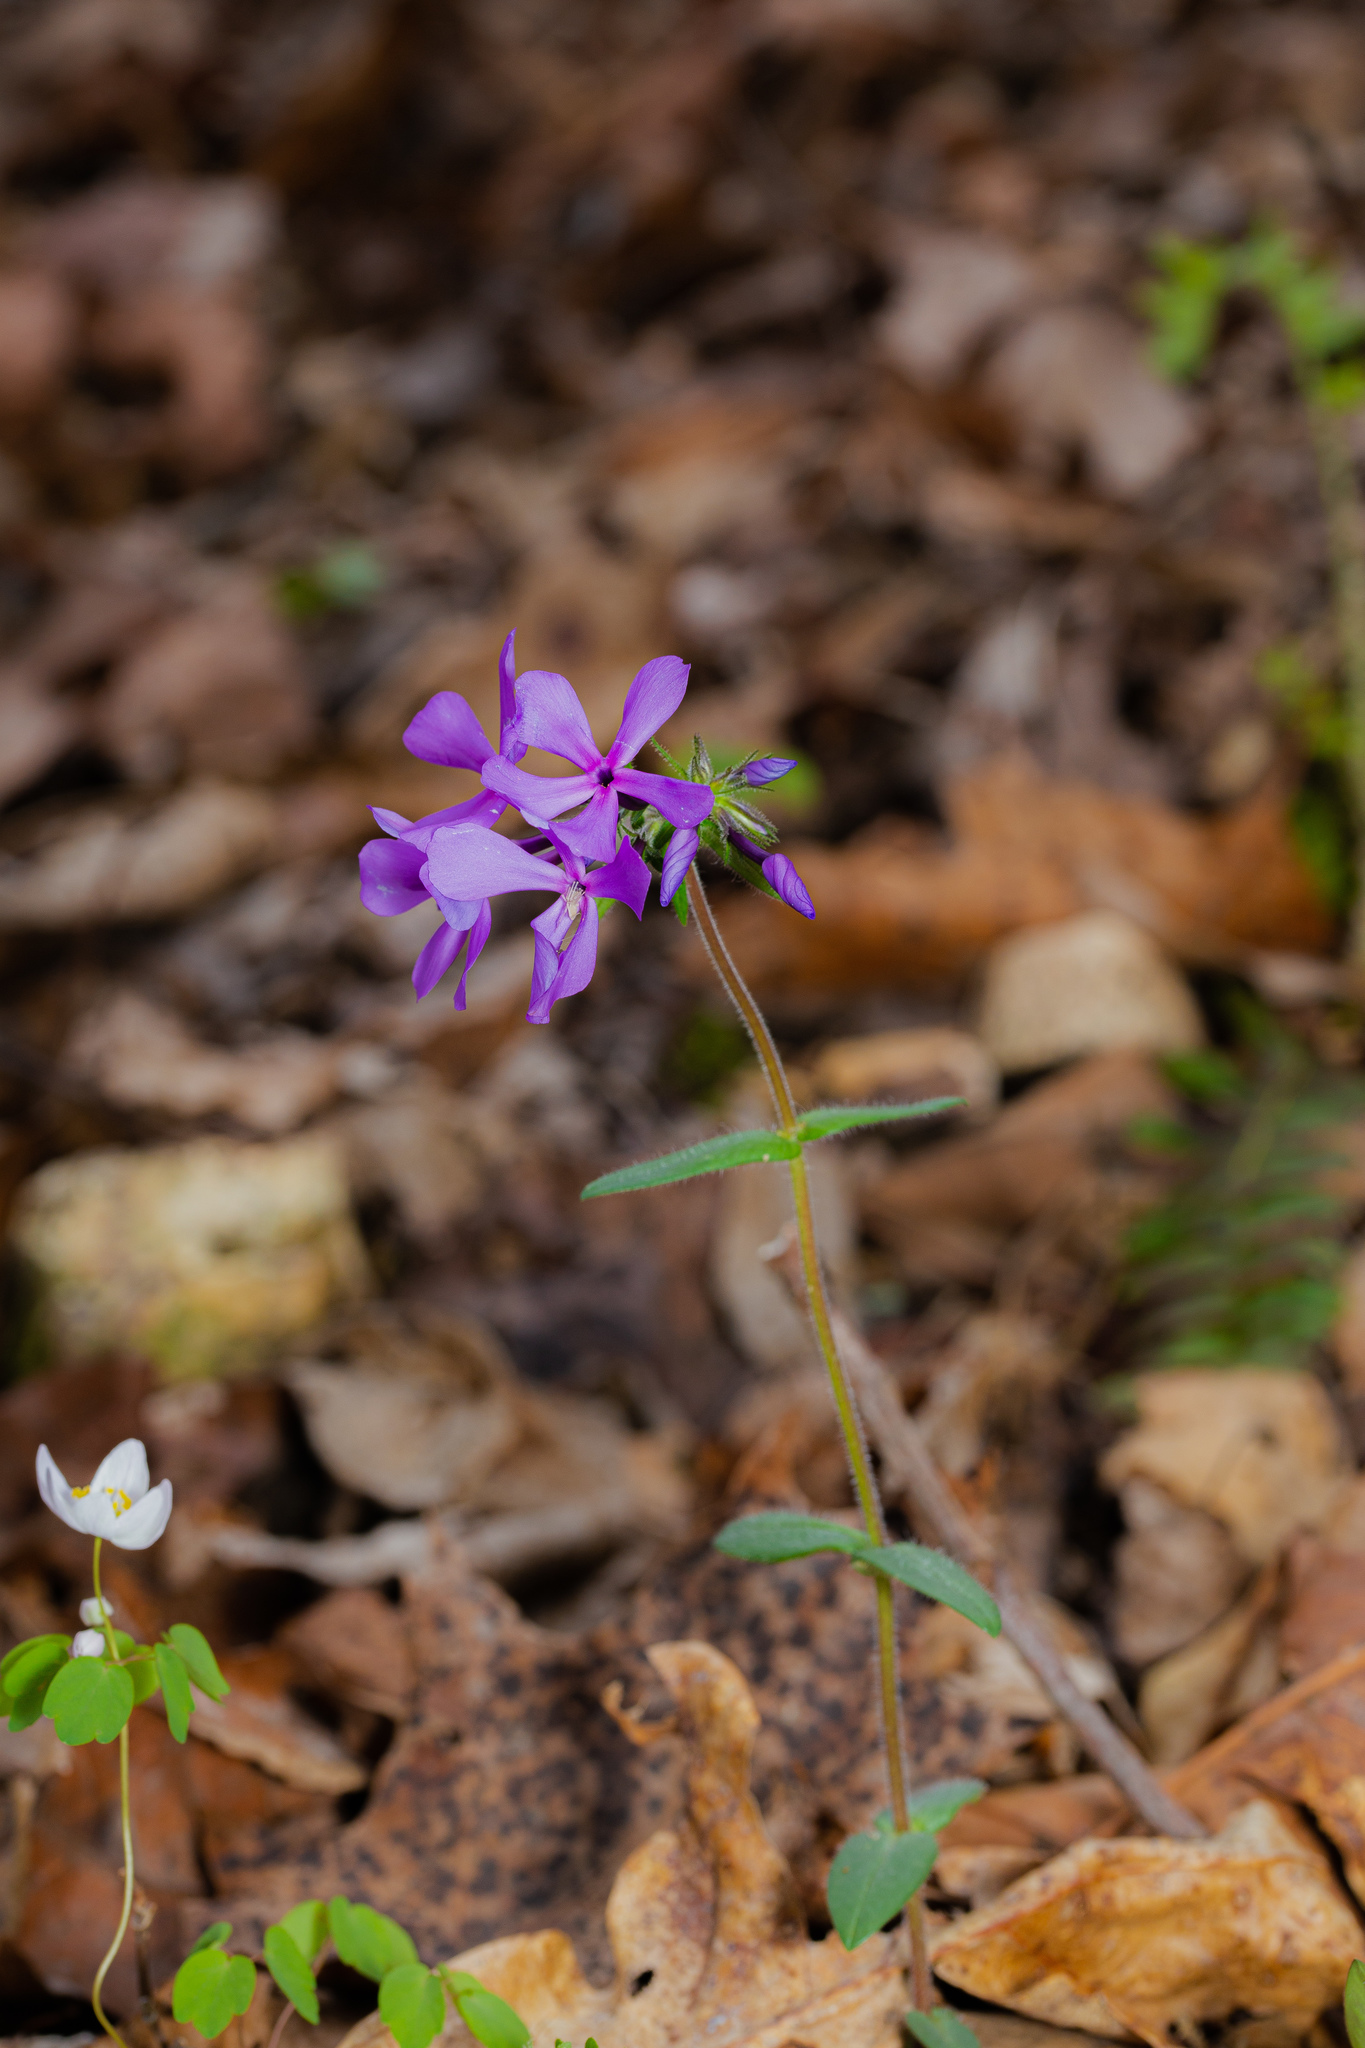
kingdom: Plantae
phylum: Tracheophyta
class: Magnoliopsida
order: Ericales
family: Polemoniaceae
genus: Phlox
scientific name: Phlox divaricata
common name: Blue phlox
